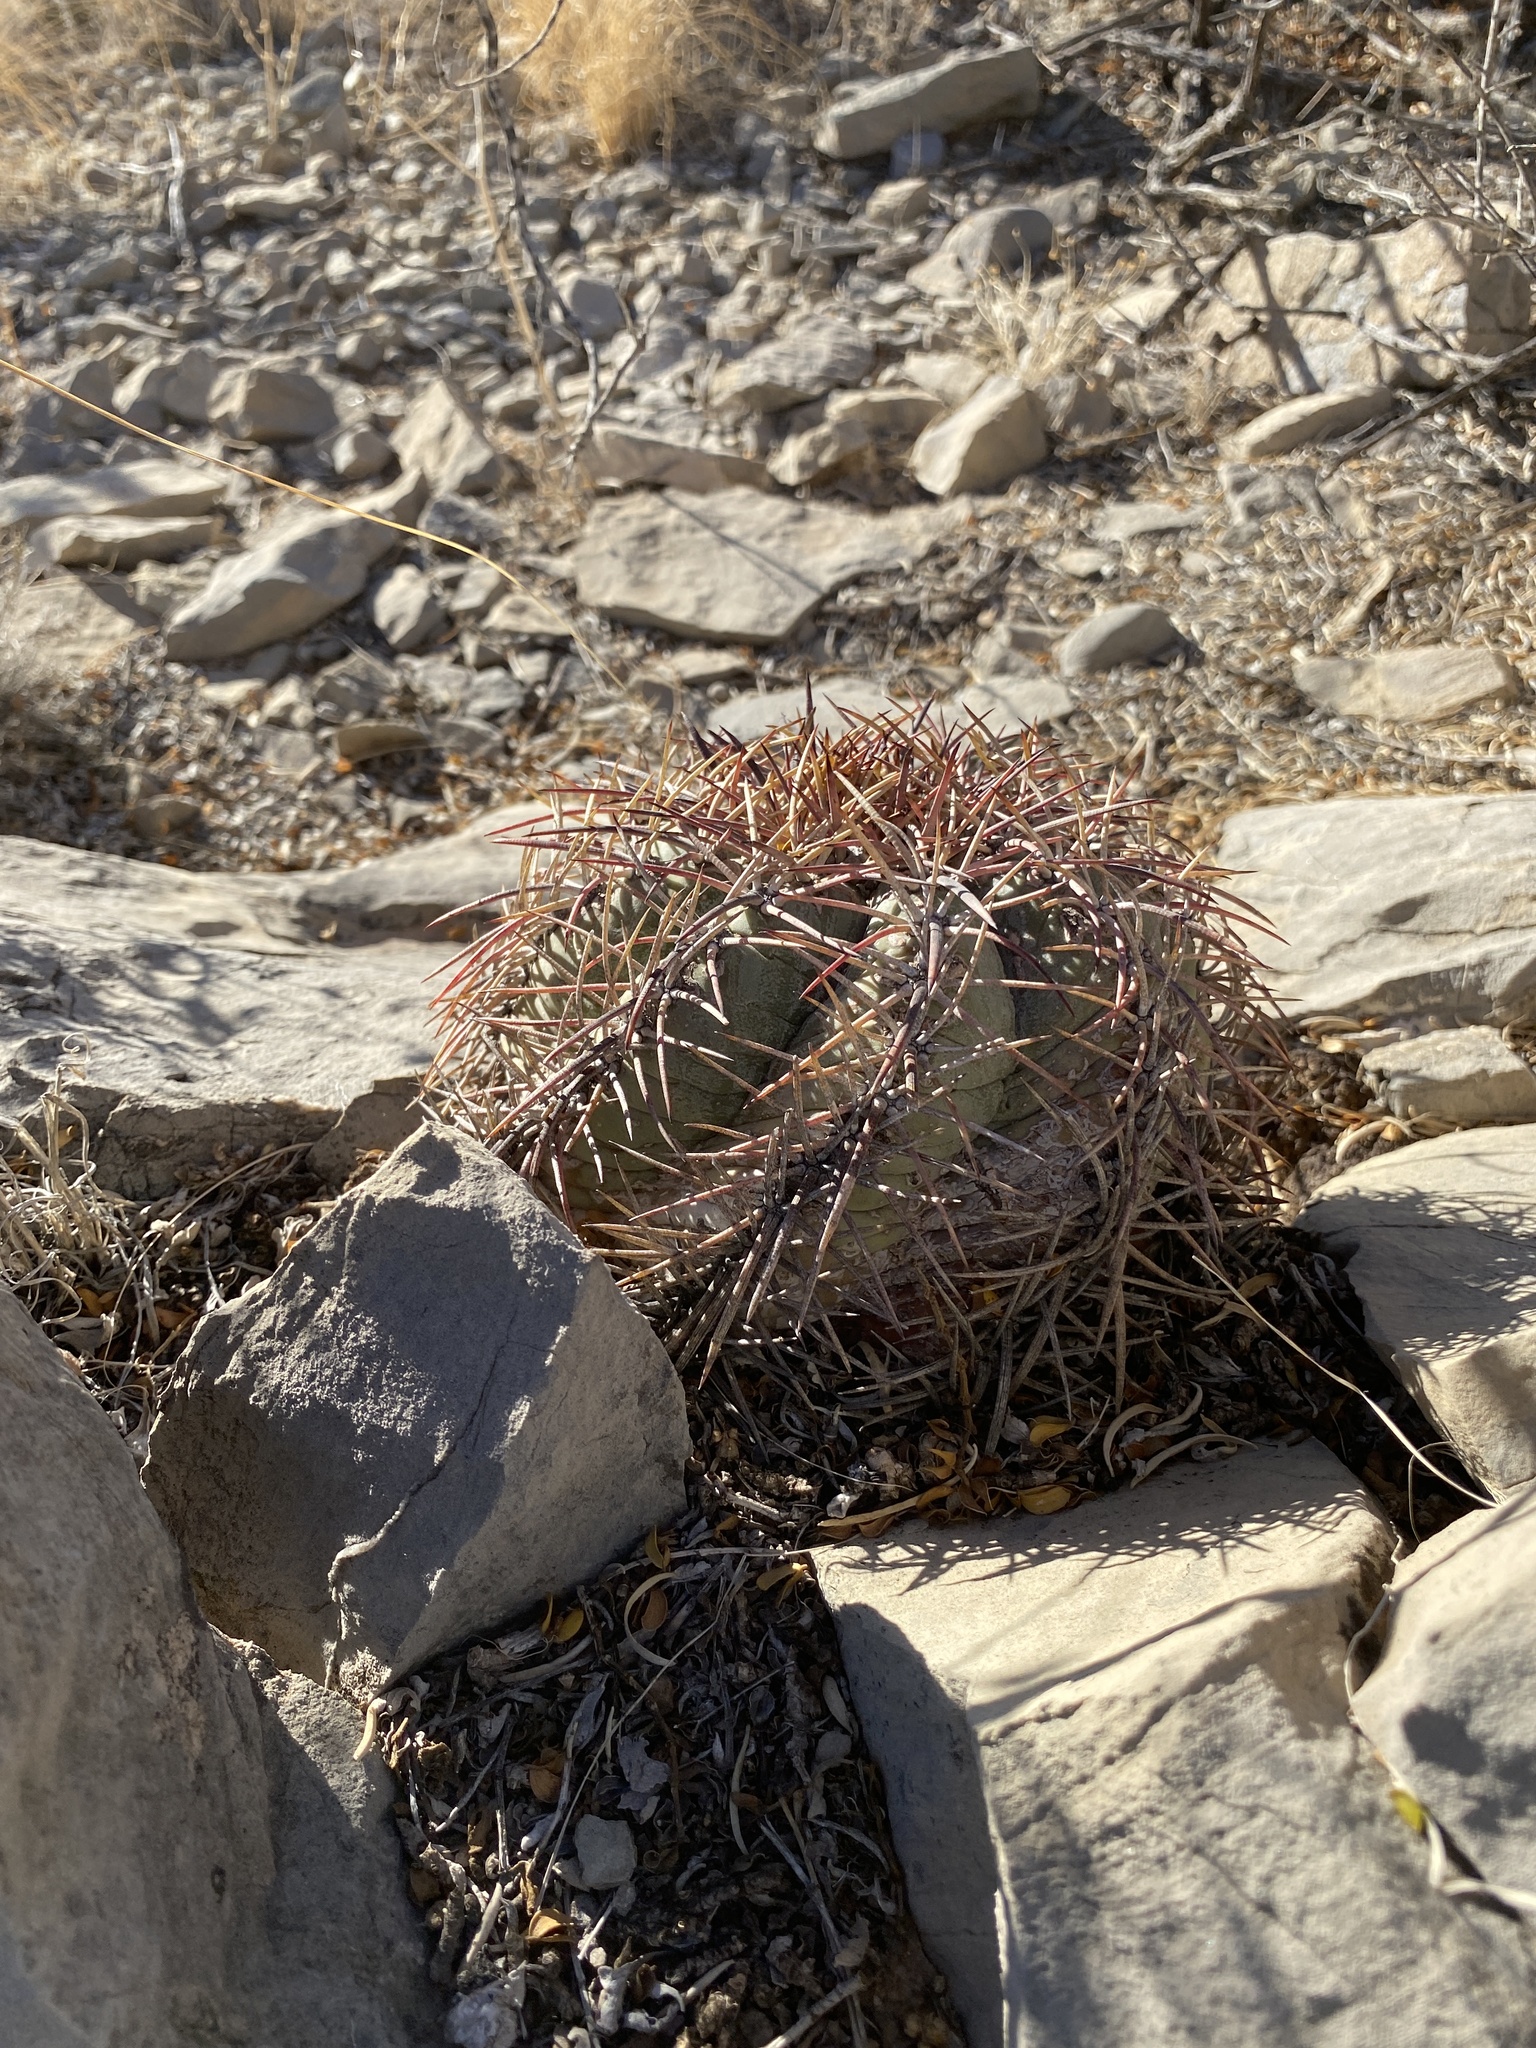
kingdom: Plantae
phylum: Tracheophyta
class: Magnoliopsida
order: Caryophyllales
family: Cactaceae
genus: Echinocactus
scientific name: Echinocactus horizonthalonius
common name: Devilshead
